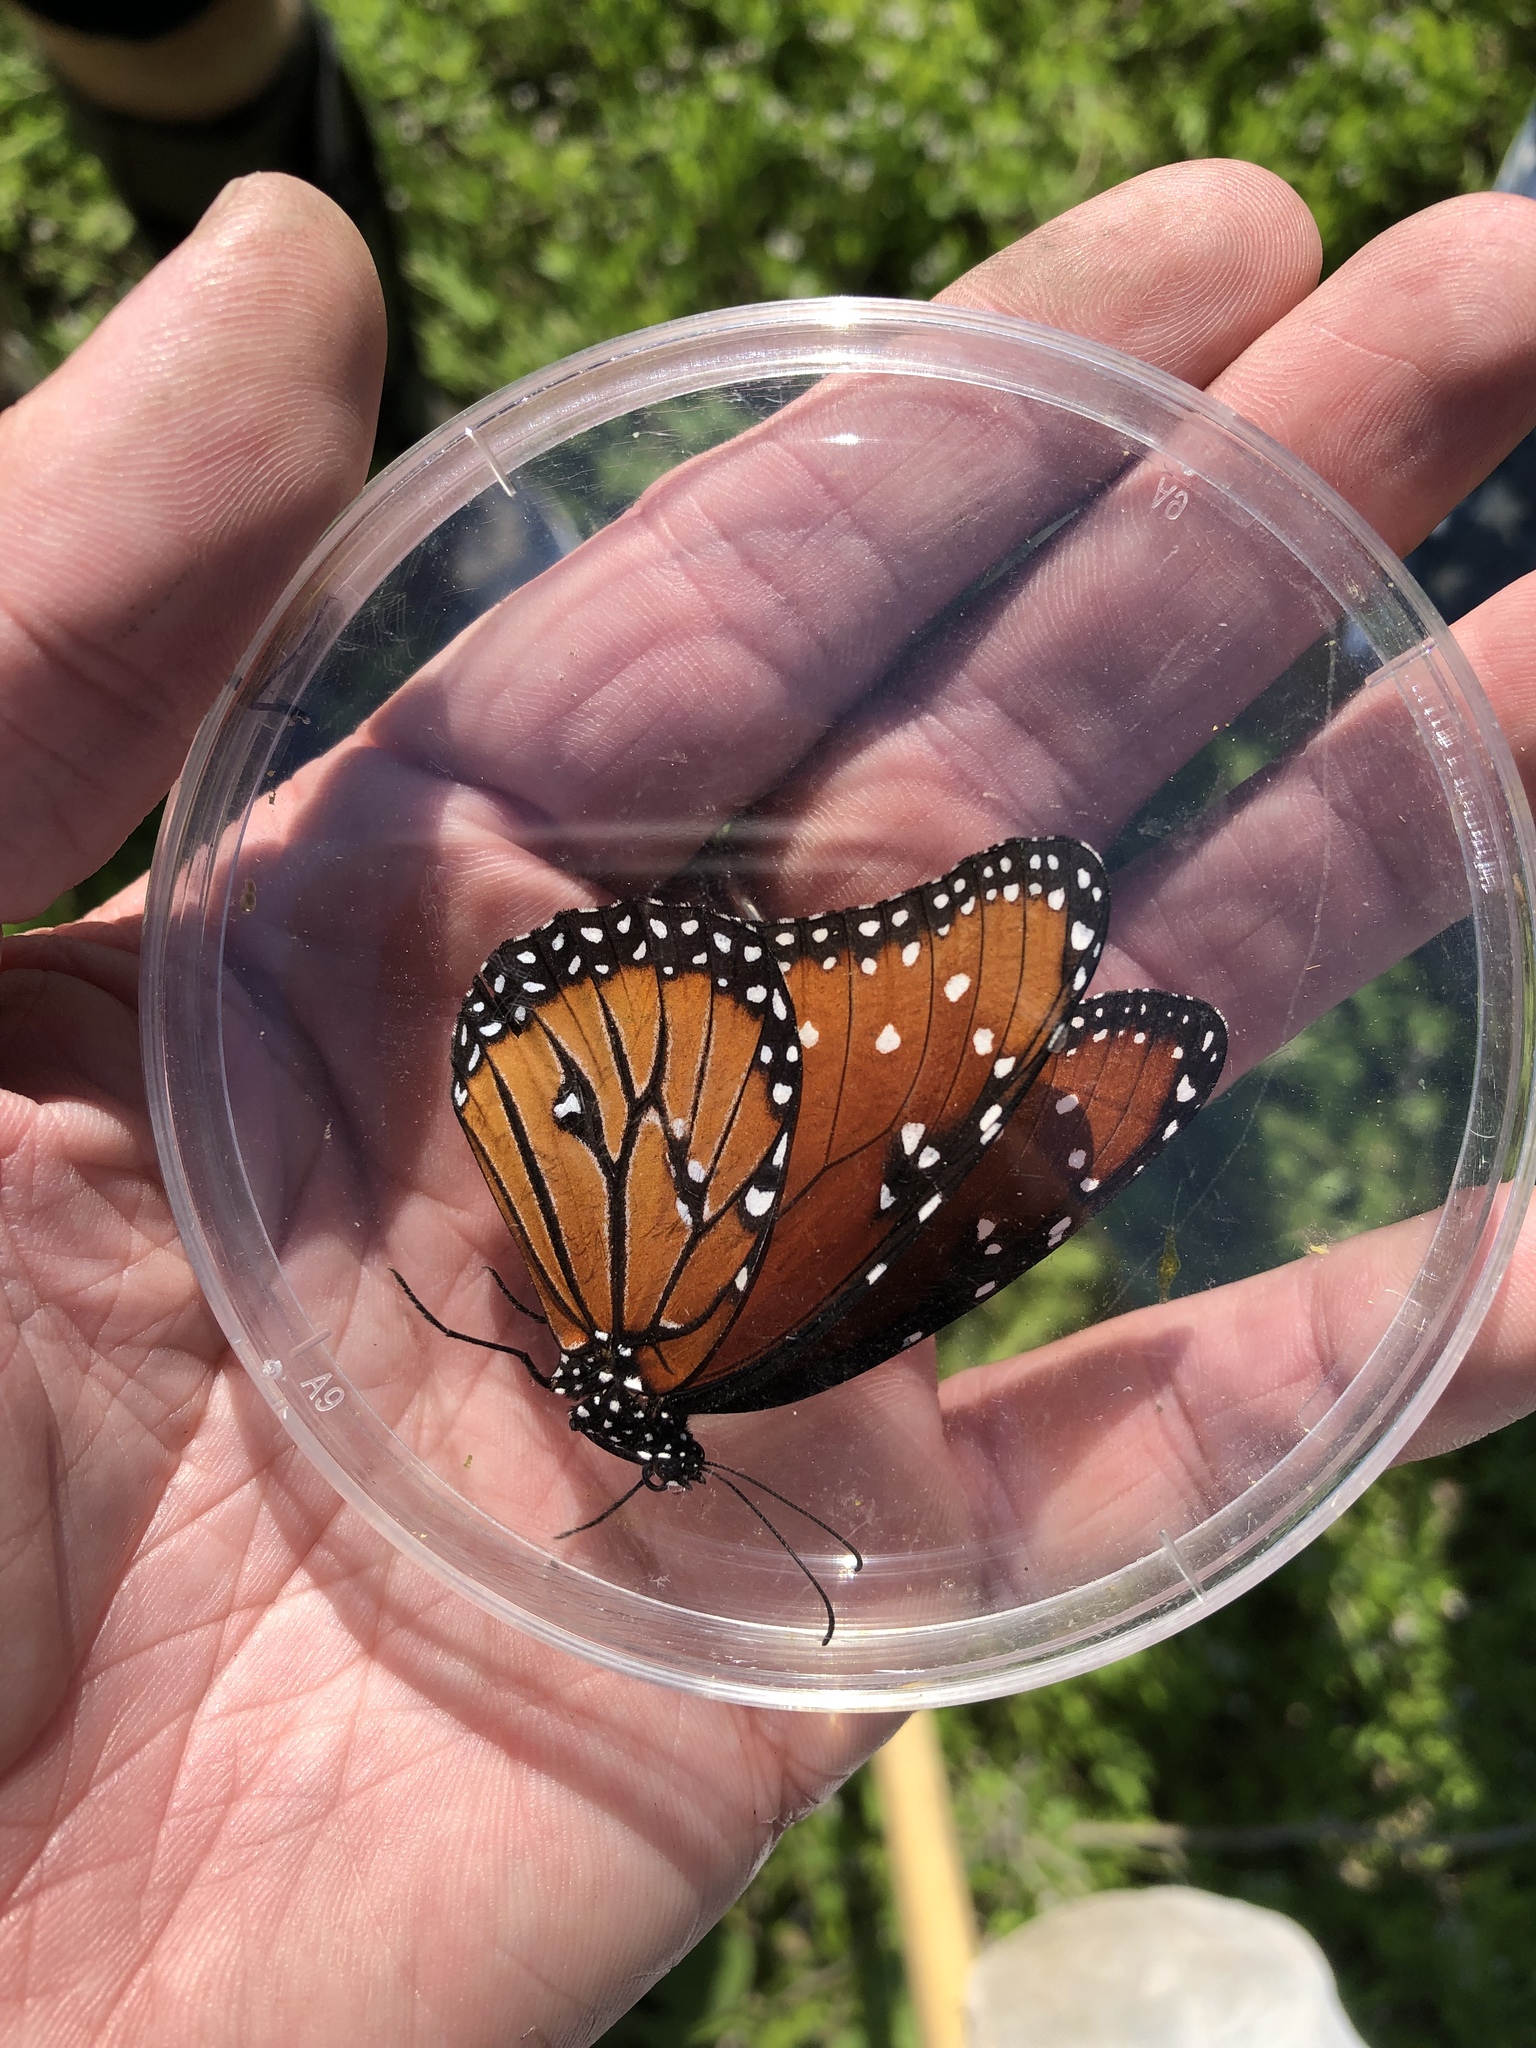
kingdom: Animalia
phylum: Arthropoda
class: Insecta
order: Lepidoptera
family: Nymphalidae
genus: Danaus
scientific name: Danaus gilippus
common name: Queen
